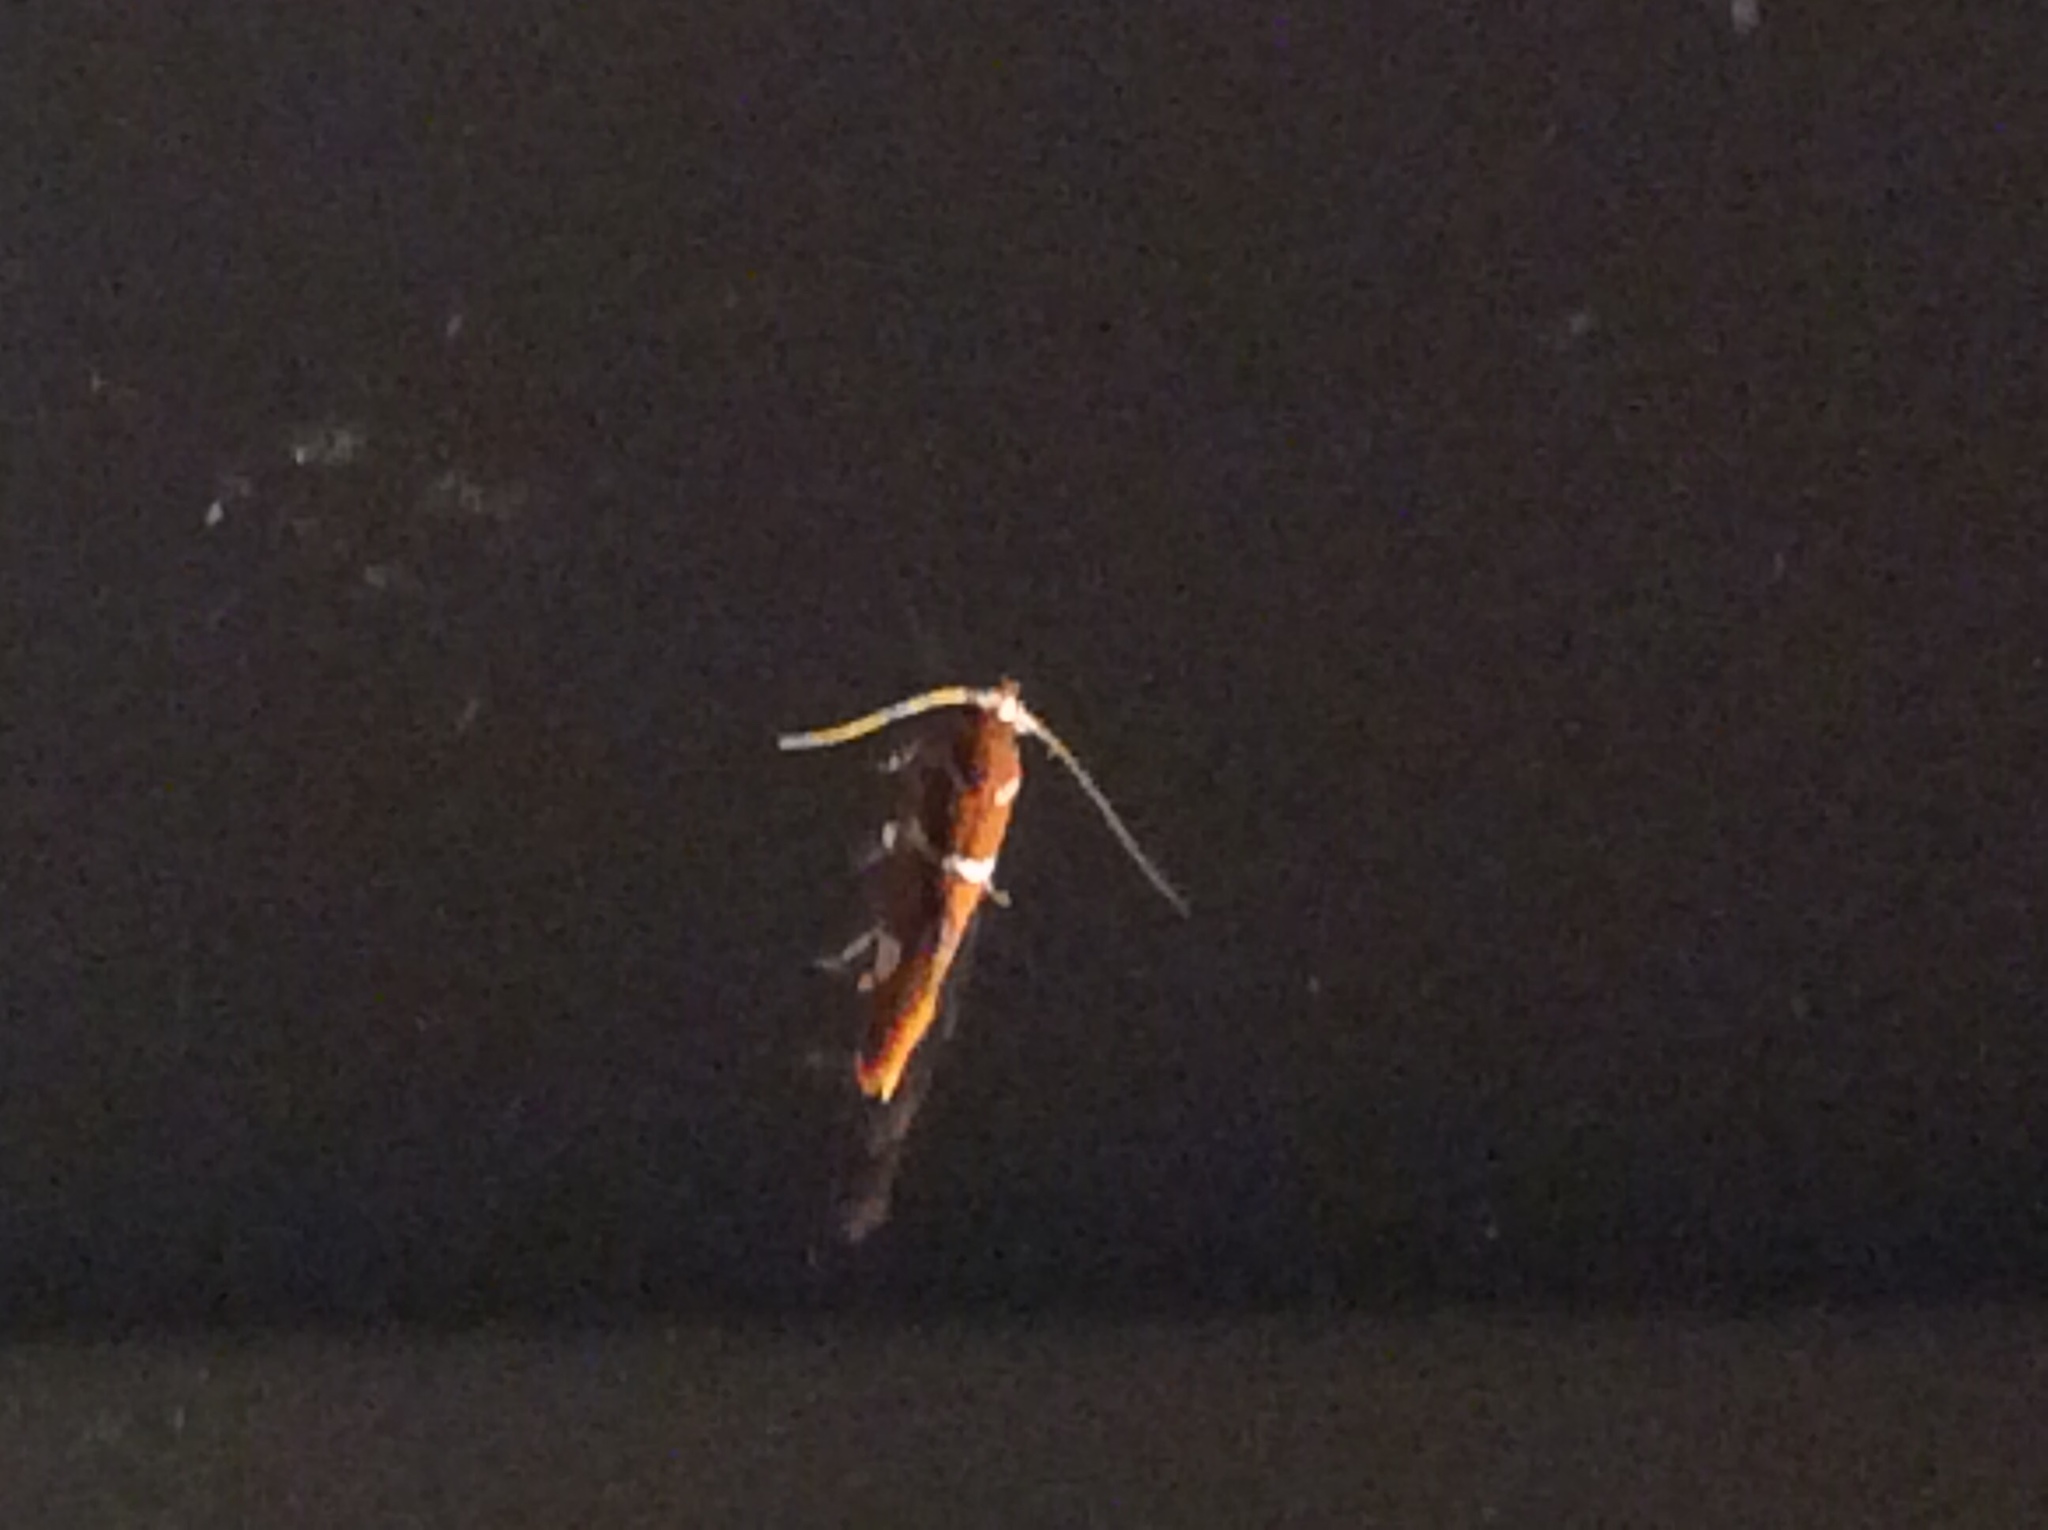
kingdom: Animalia
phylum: Arthropoda
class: Insecta
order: Lepidoptera
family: Oecophoridae
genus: Promalactis
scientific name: Promalactis suzukiella
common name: Moth
